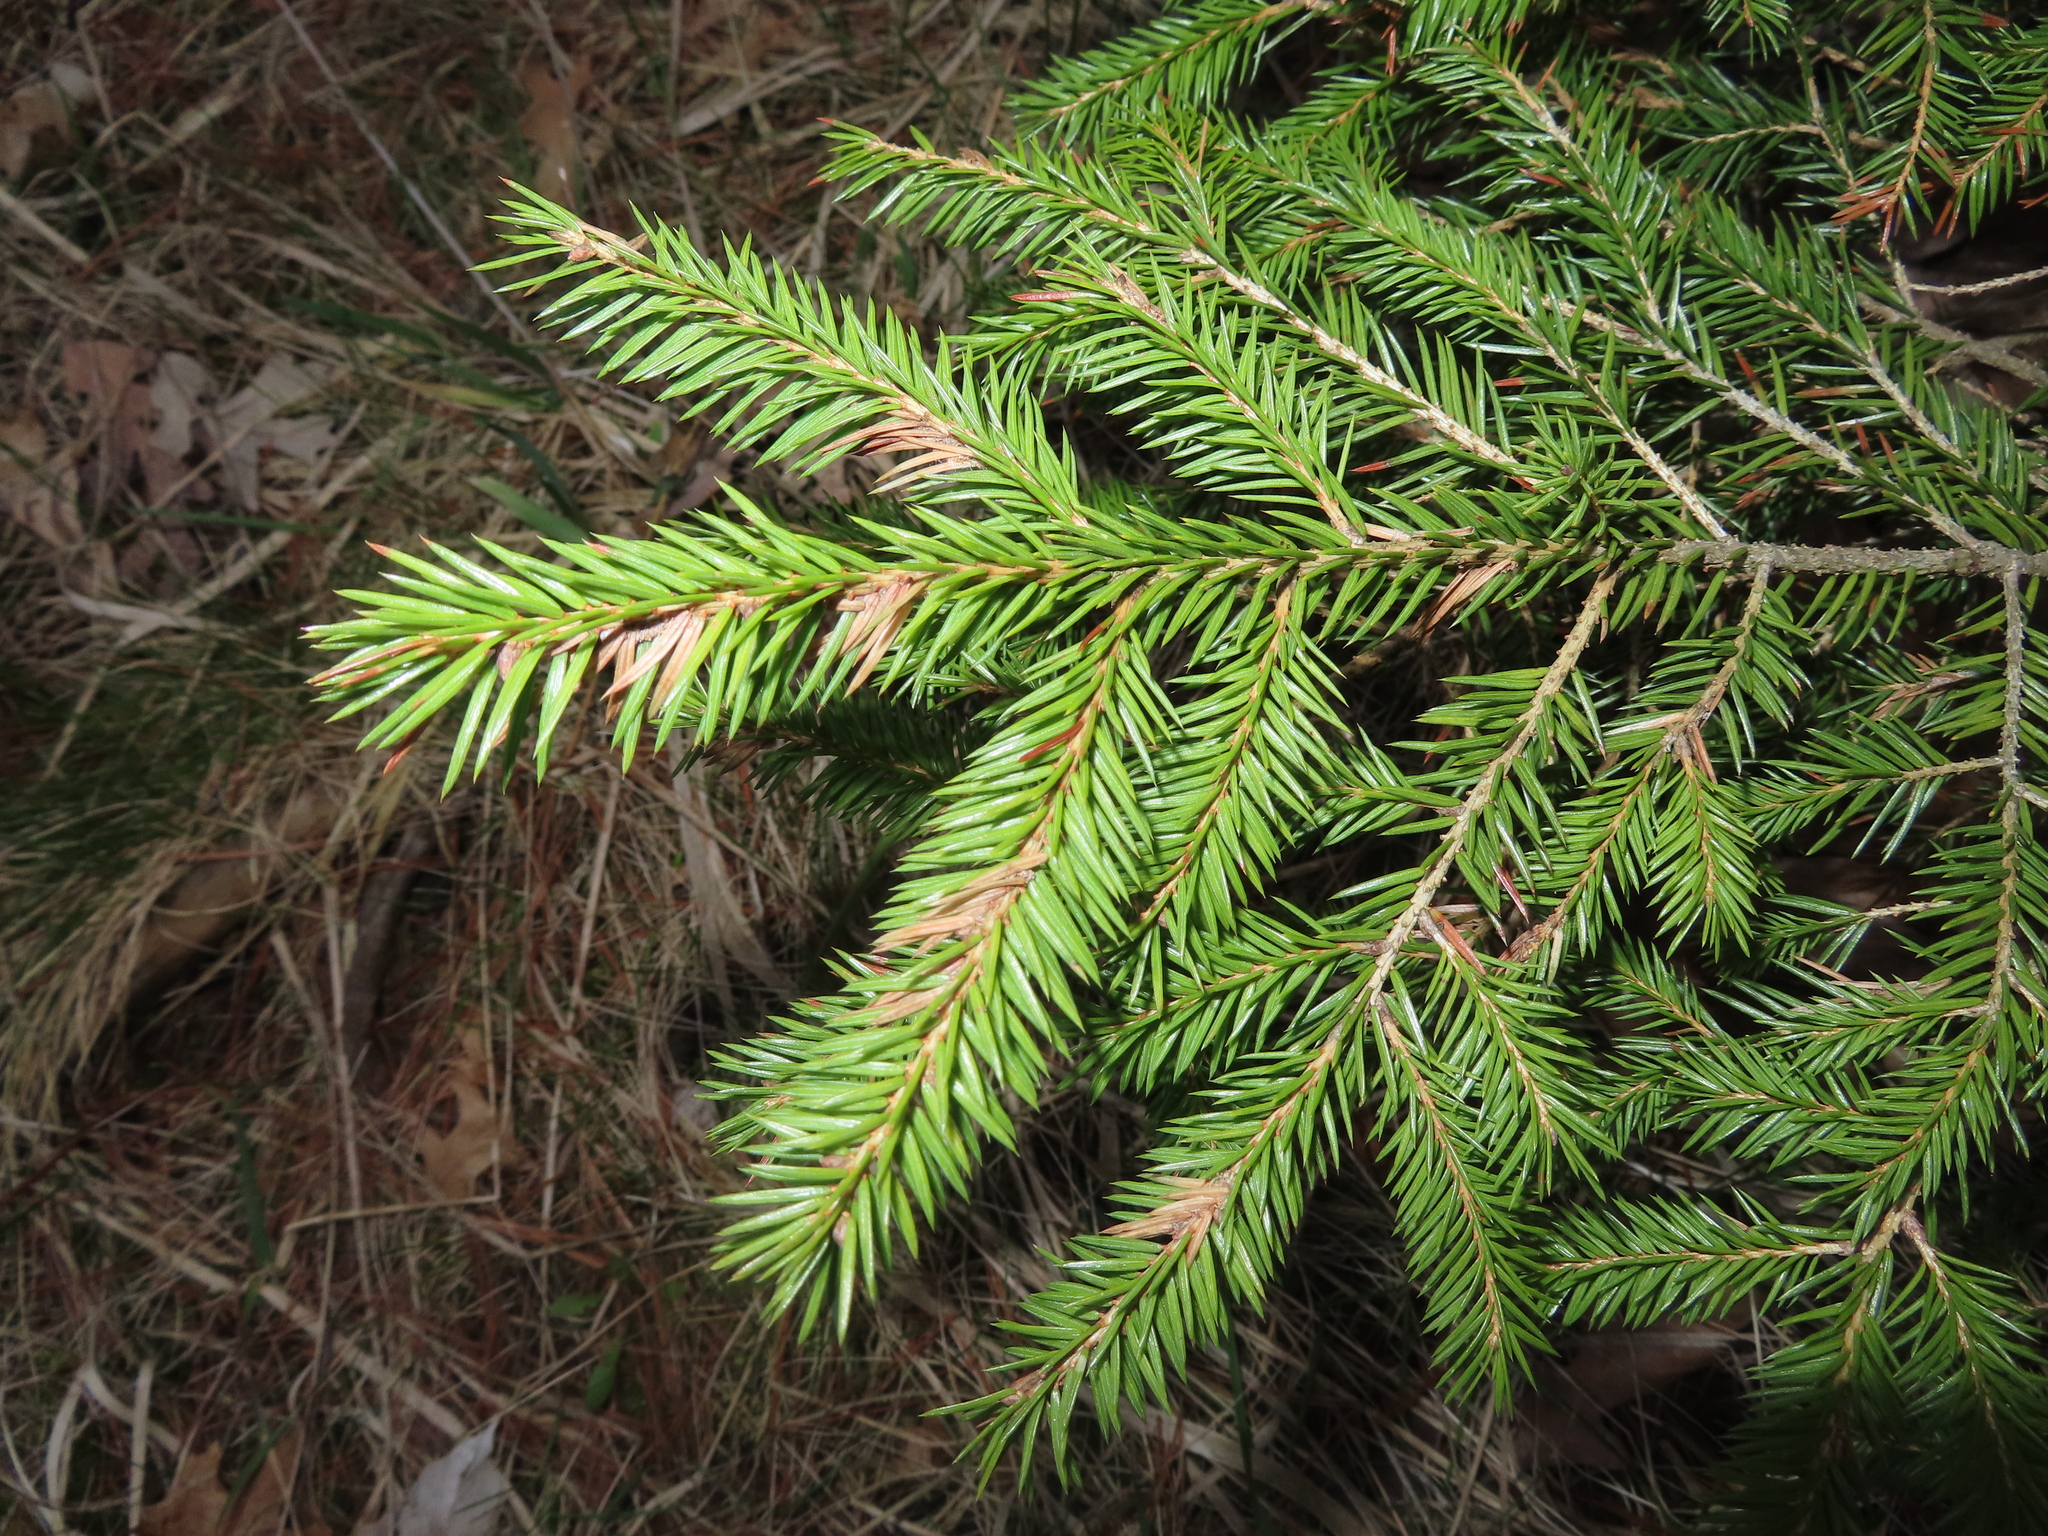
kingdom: Plantae
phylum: Tracheophyta
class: Pinopsida
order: Pinales
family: Pinaceae
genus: Picea
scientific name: Picea glauca
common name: White spruce
